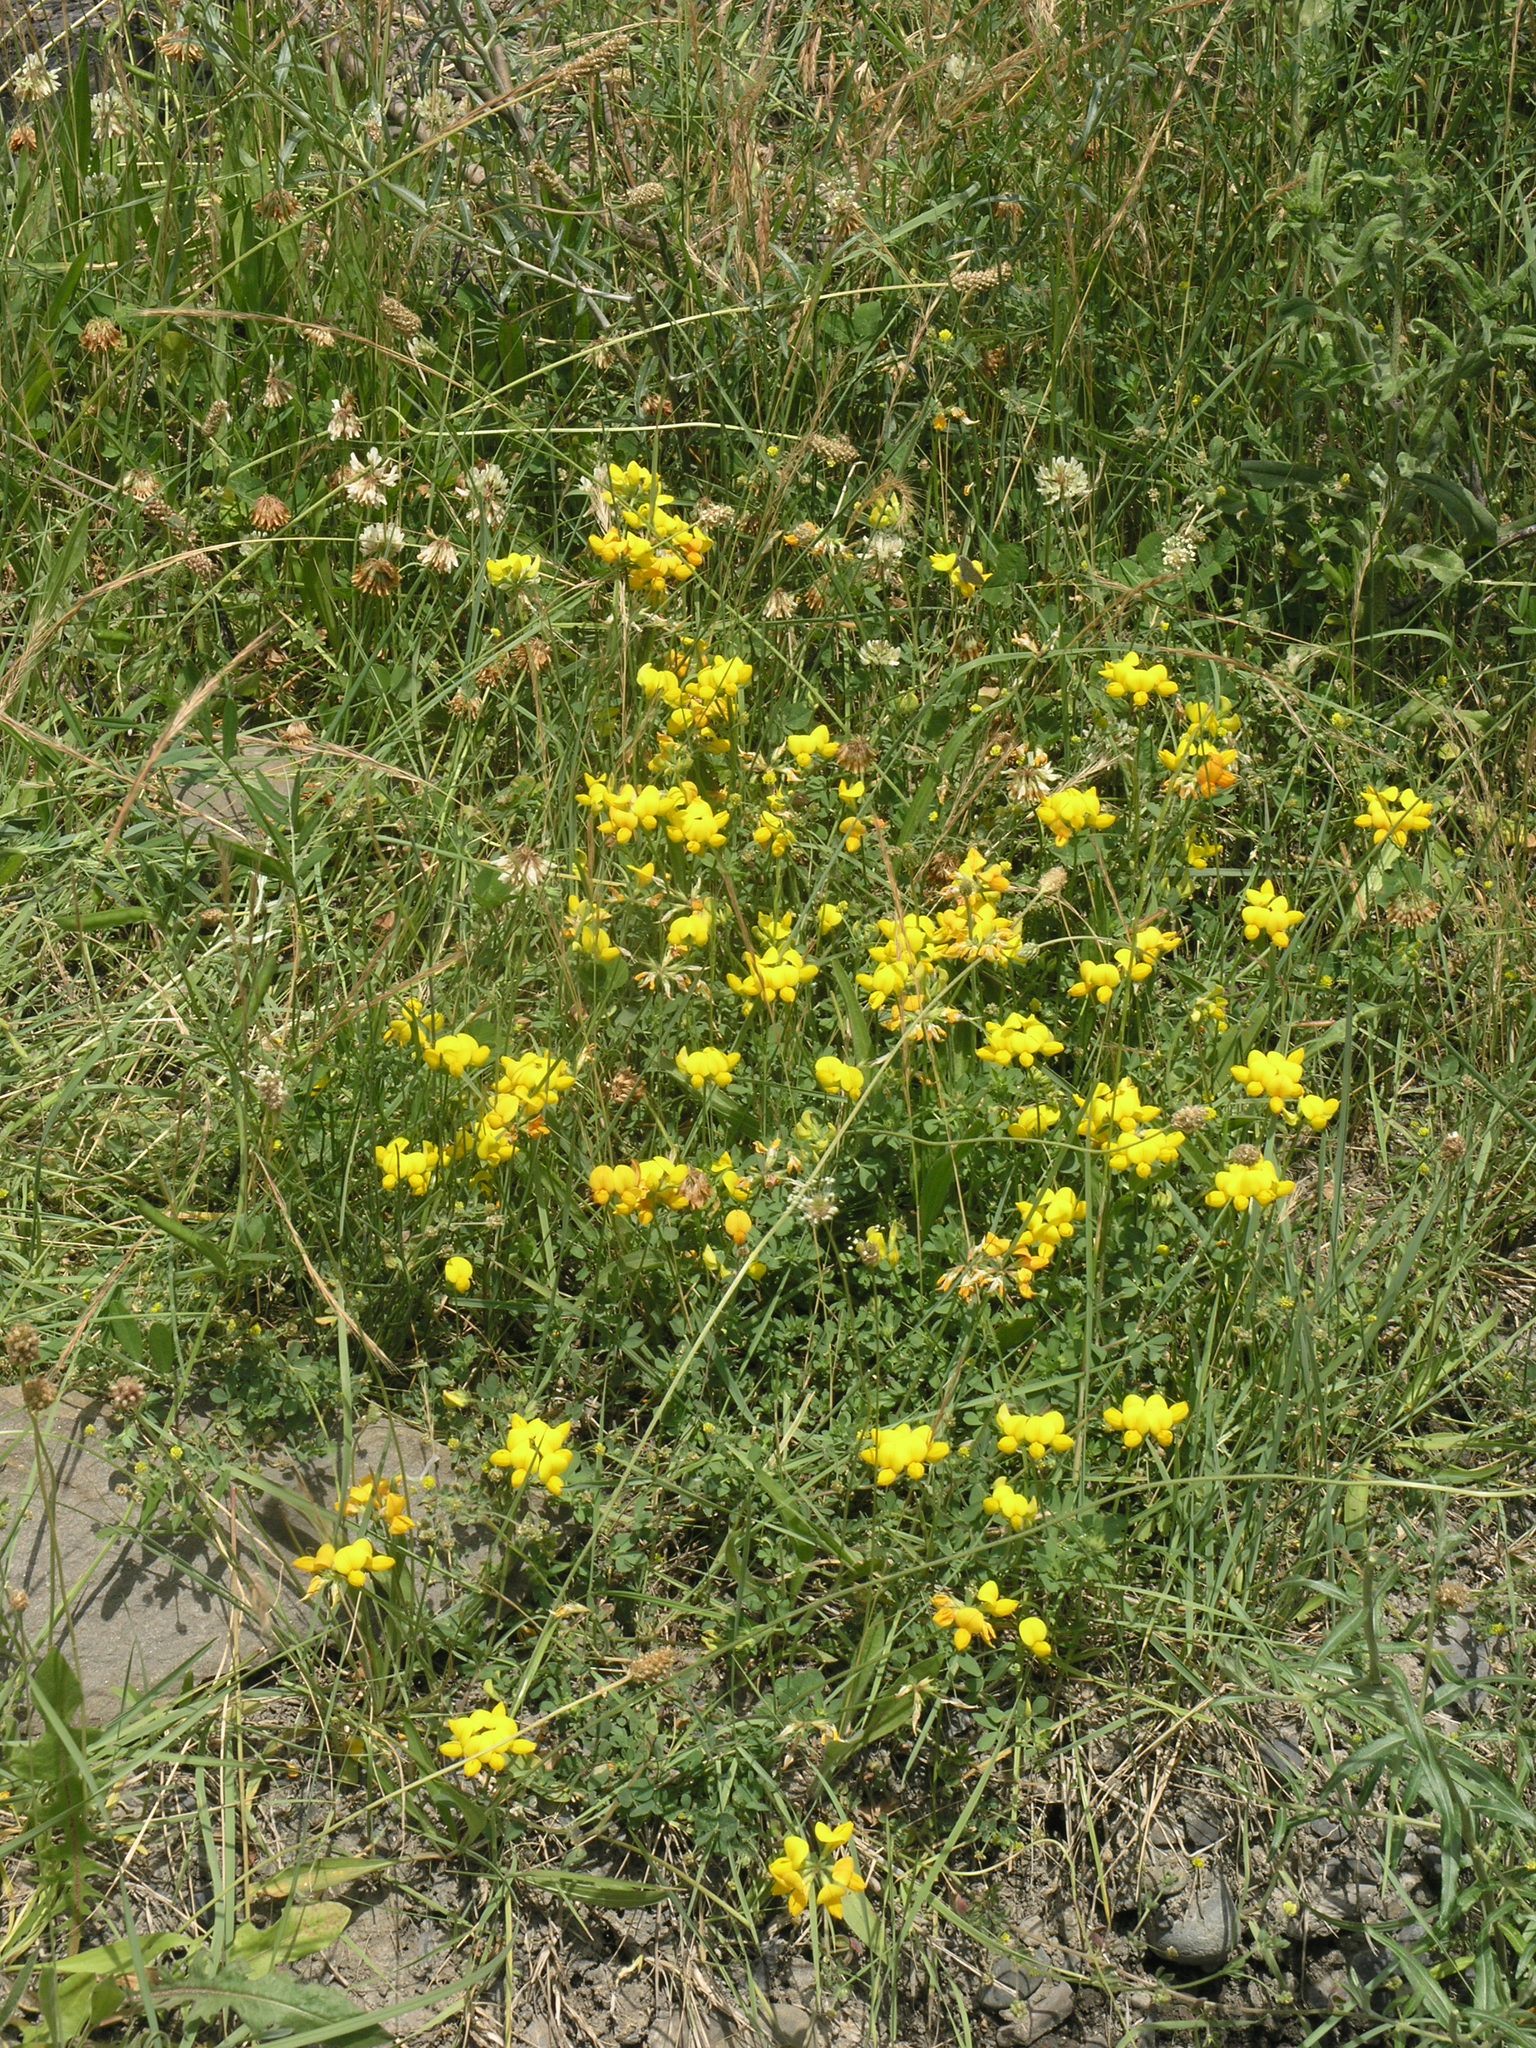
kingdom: Plantae
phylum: Tracheophyta
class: Magnoliopsida
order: Fabales
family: Fabaceae
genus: Lotus
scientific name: Lotus corniculatus
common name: Common bird's-foot-trefoil
